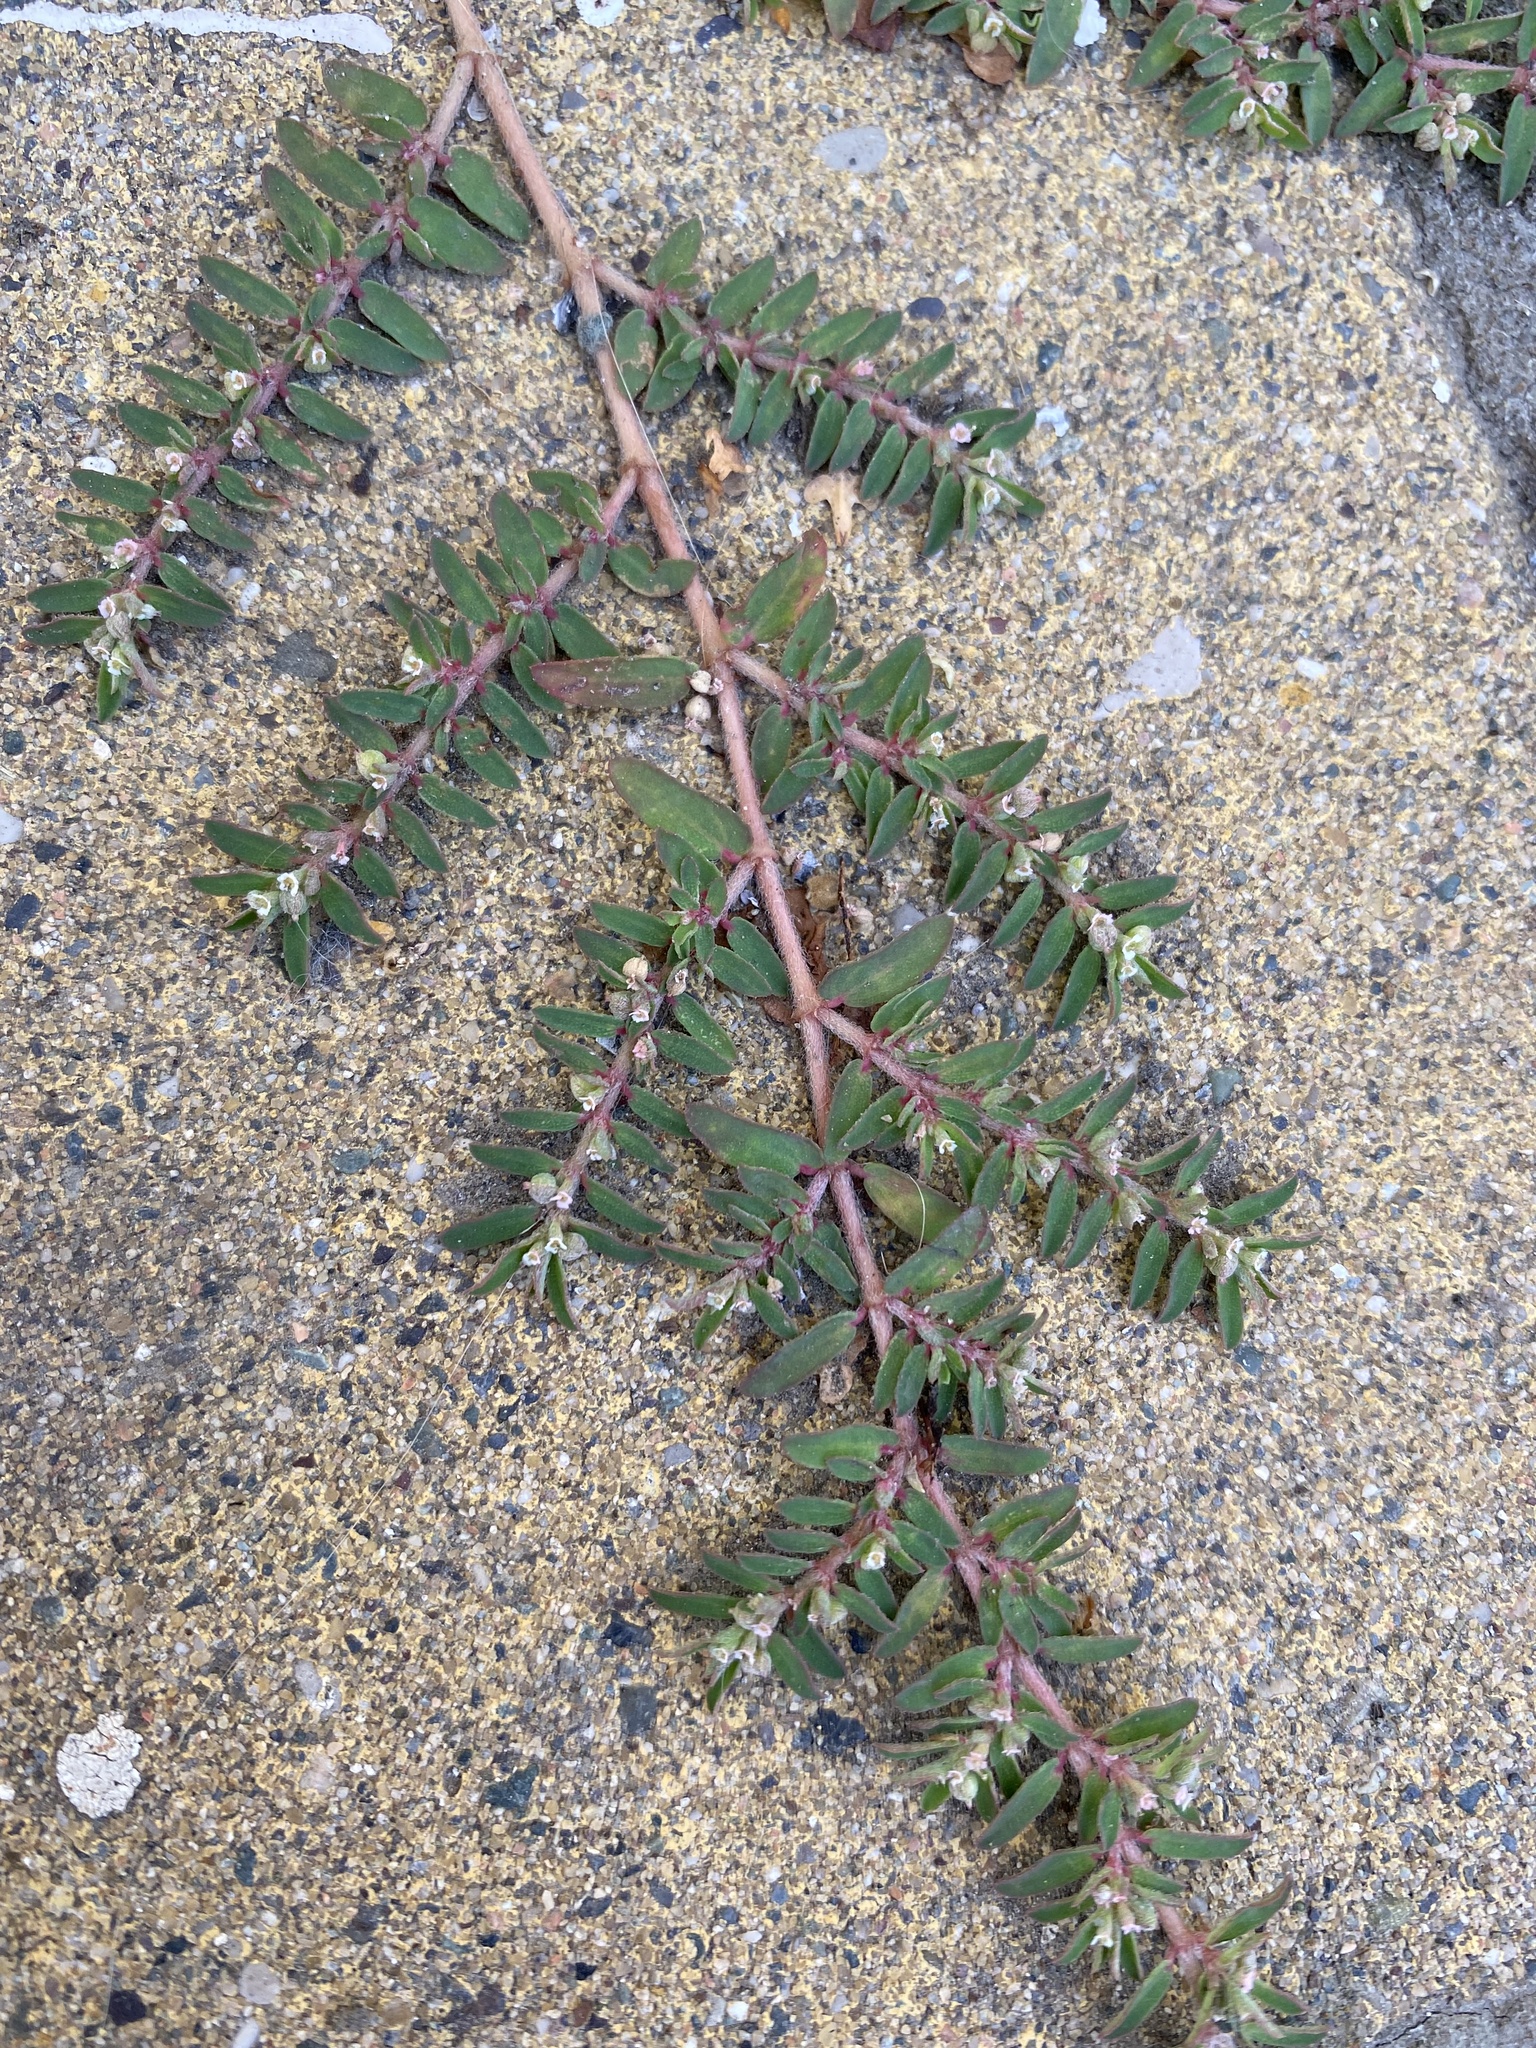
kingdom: Plantae
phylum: Tracheophyta
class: Magnoliopsida
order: Malpighiales
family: Euphorbiaceae
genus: Euphorbia
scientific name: Euphorbia maculata
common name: Spotted spurge
